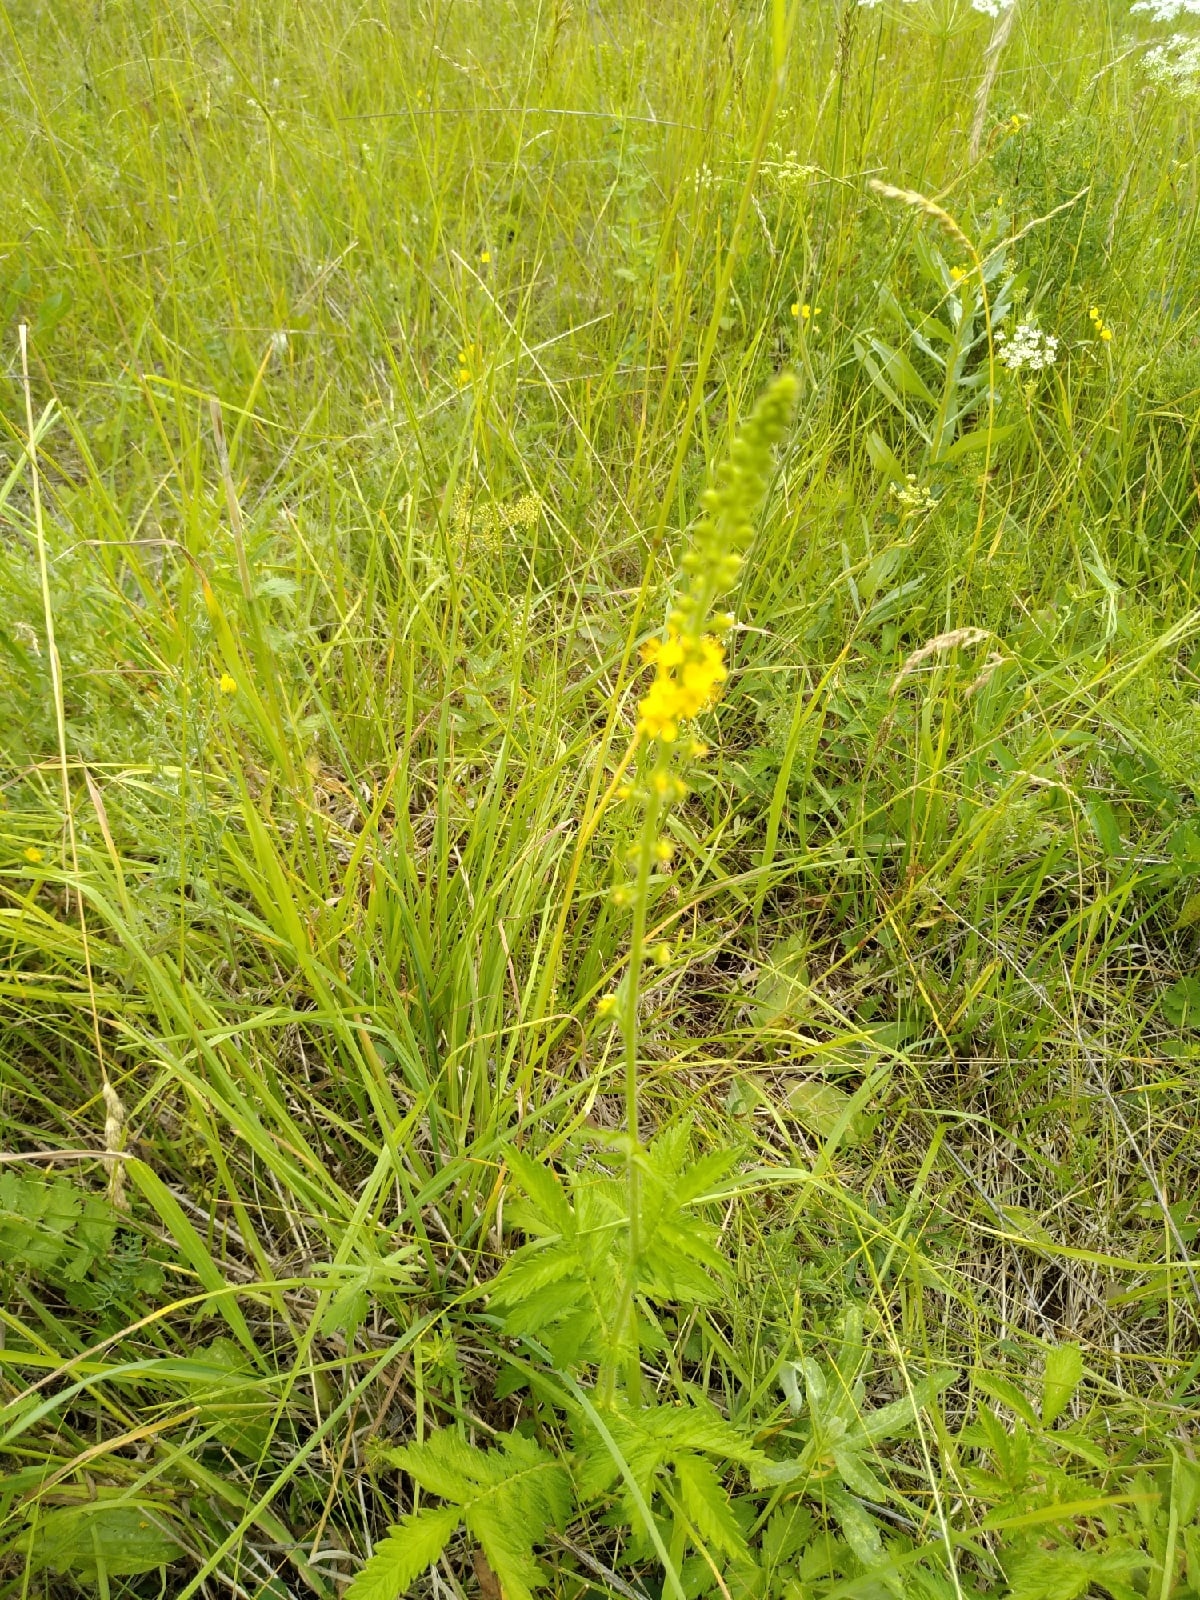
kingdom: Plantae
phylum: Tracheophyta
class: Magnoliopsida
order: Rosales
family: Rosaceae
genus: Agrimonia
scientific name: Agrimonia eupatoria
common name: Agrimony
